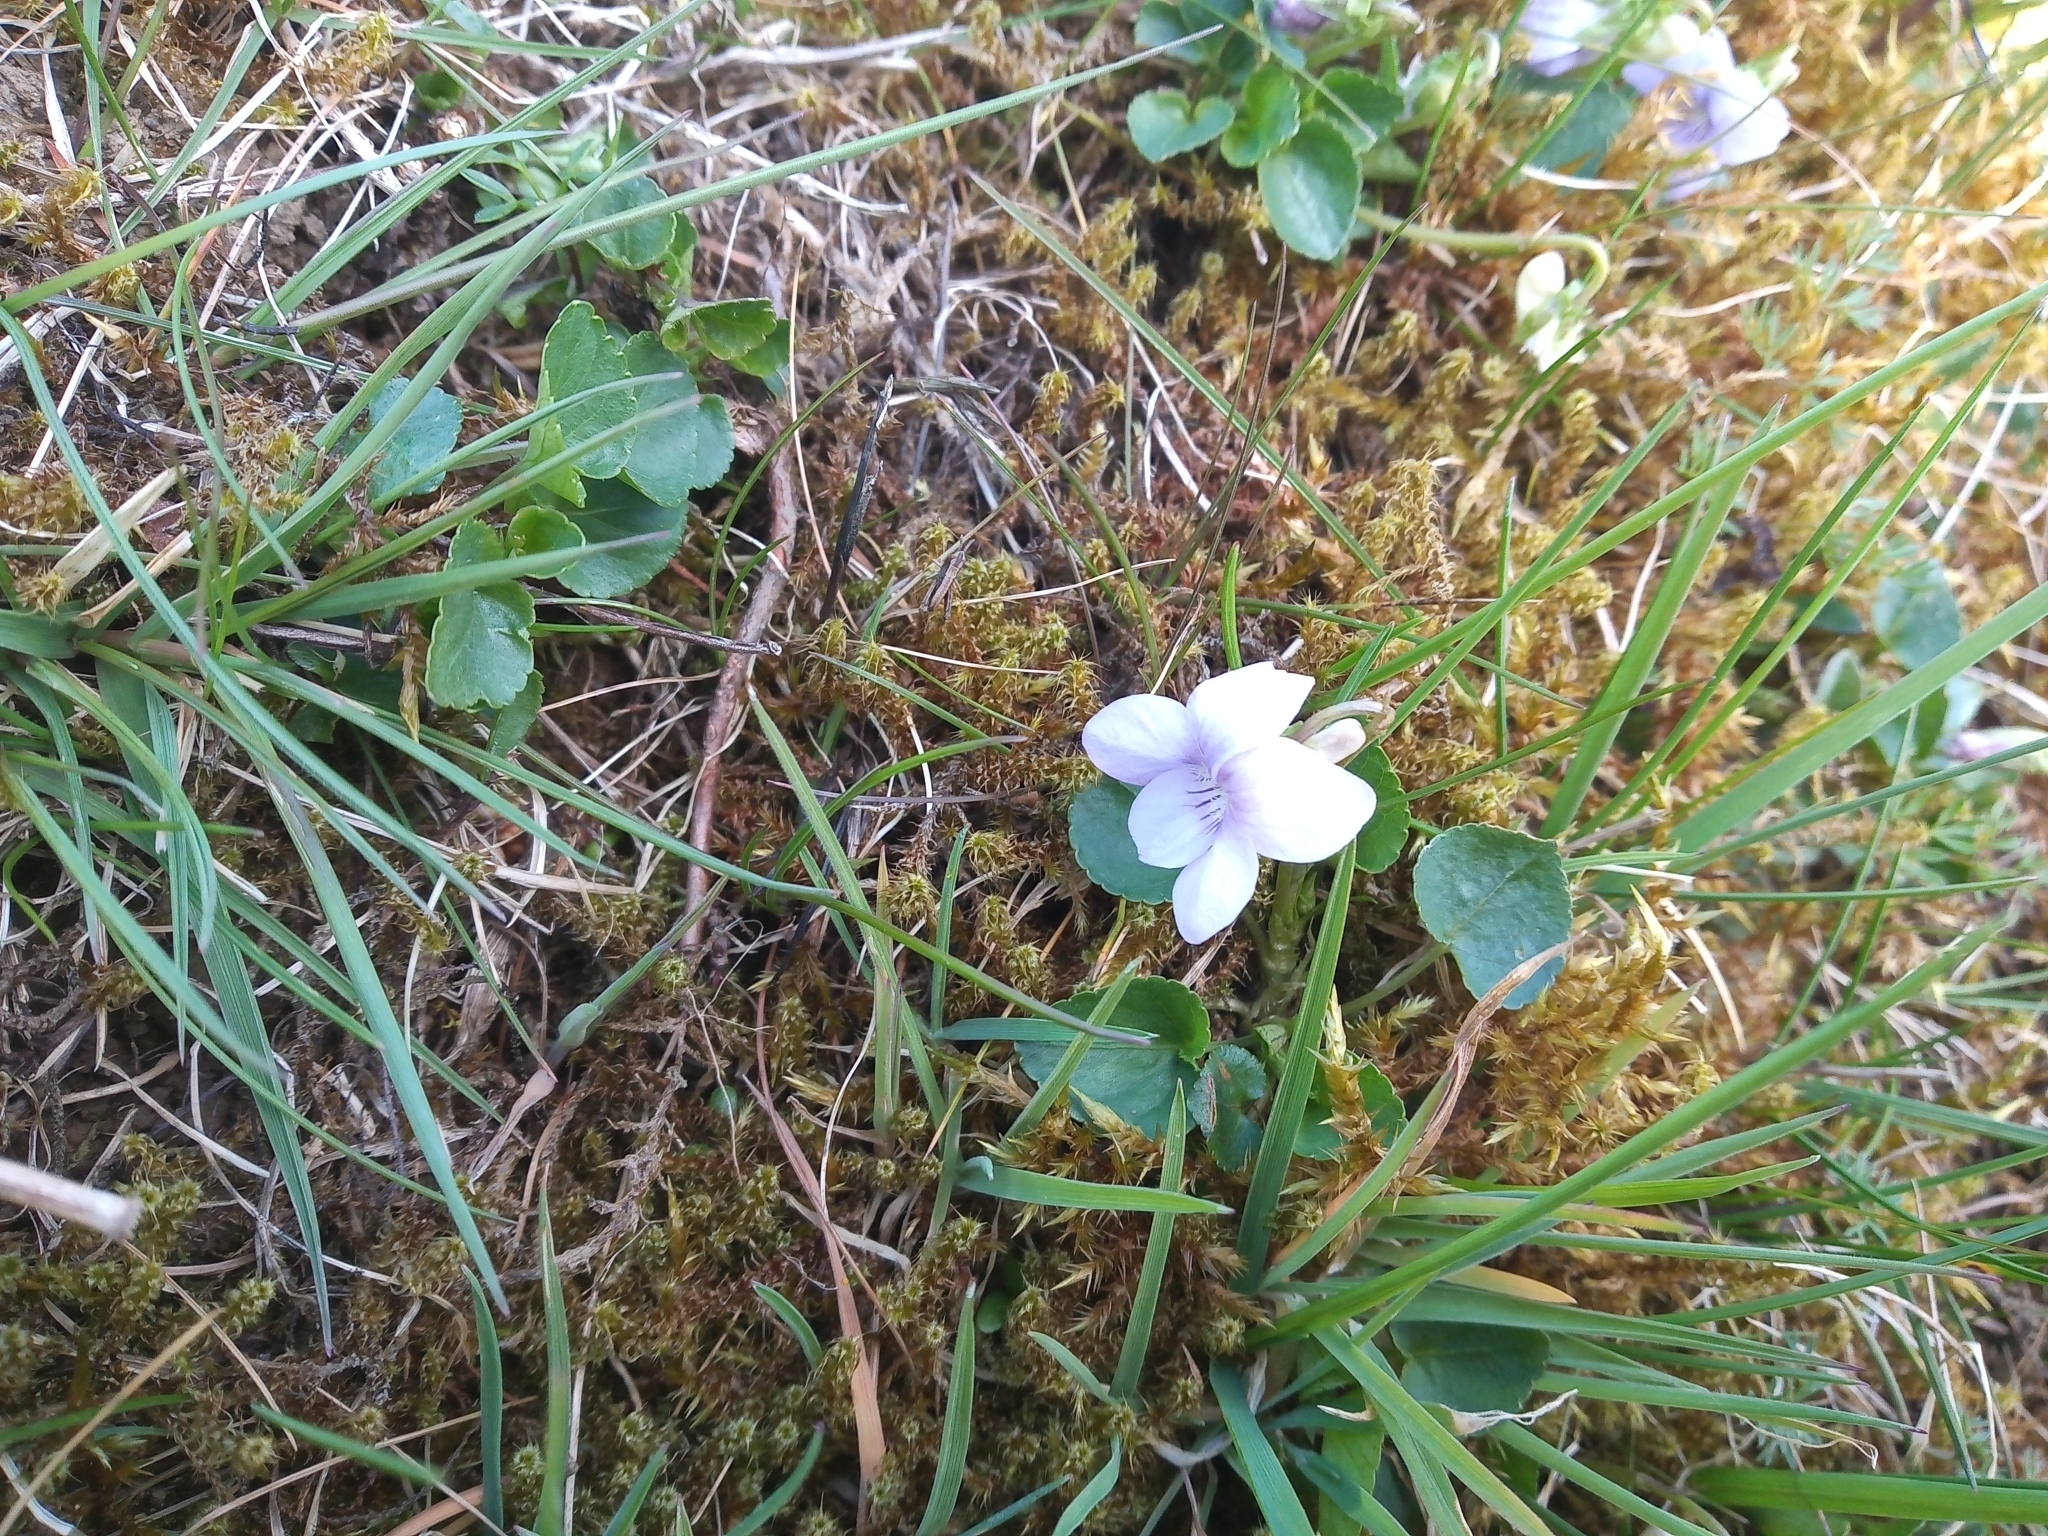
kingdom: Plantae
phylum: Tracheophyta
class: Magnoliopsida
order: Malpighiales
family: Violaceae
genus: Viola
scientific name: Viola riviniana
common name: Common dog-violet
